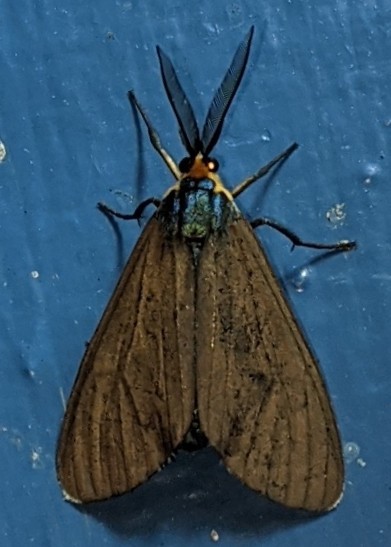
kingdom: Animalia
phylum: Arthropoda
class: Insecta
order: Lepidoptera
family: Erebidae
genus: Ctenucha
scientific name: Ctenucha virginica
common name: Virginia ctenucha moth
